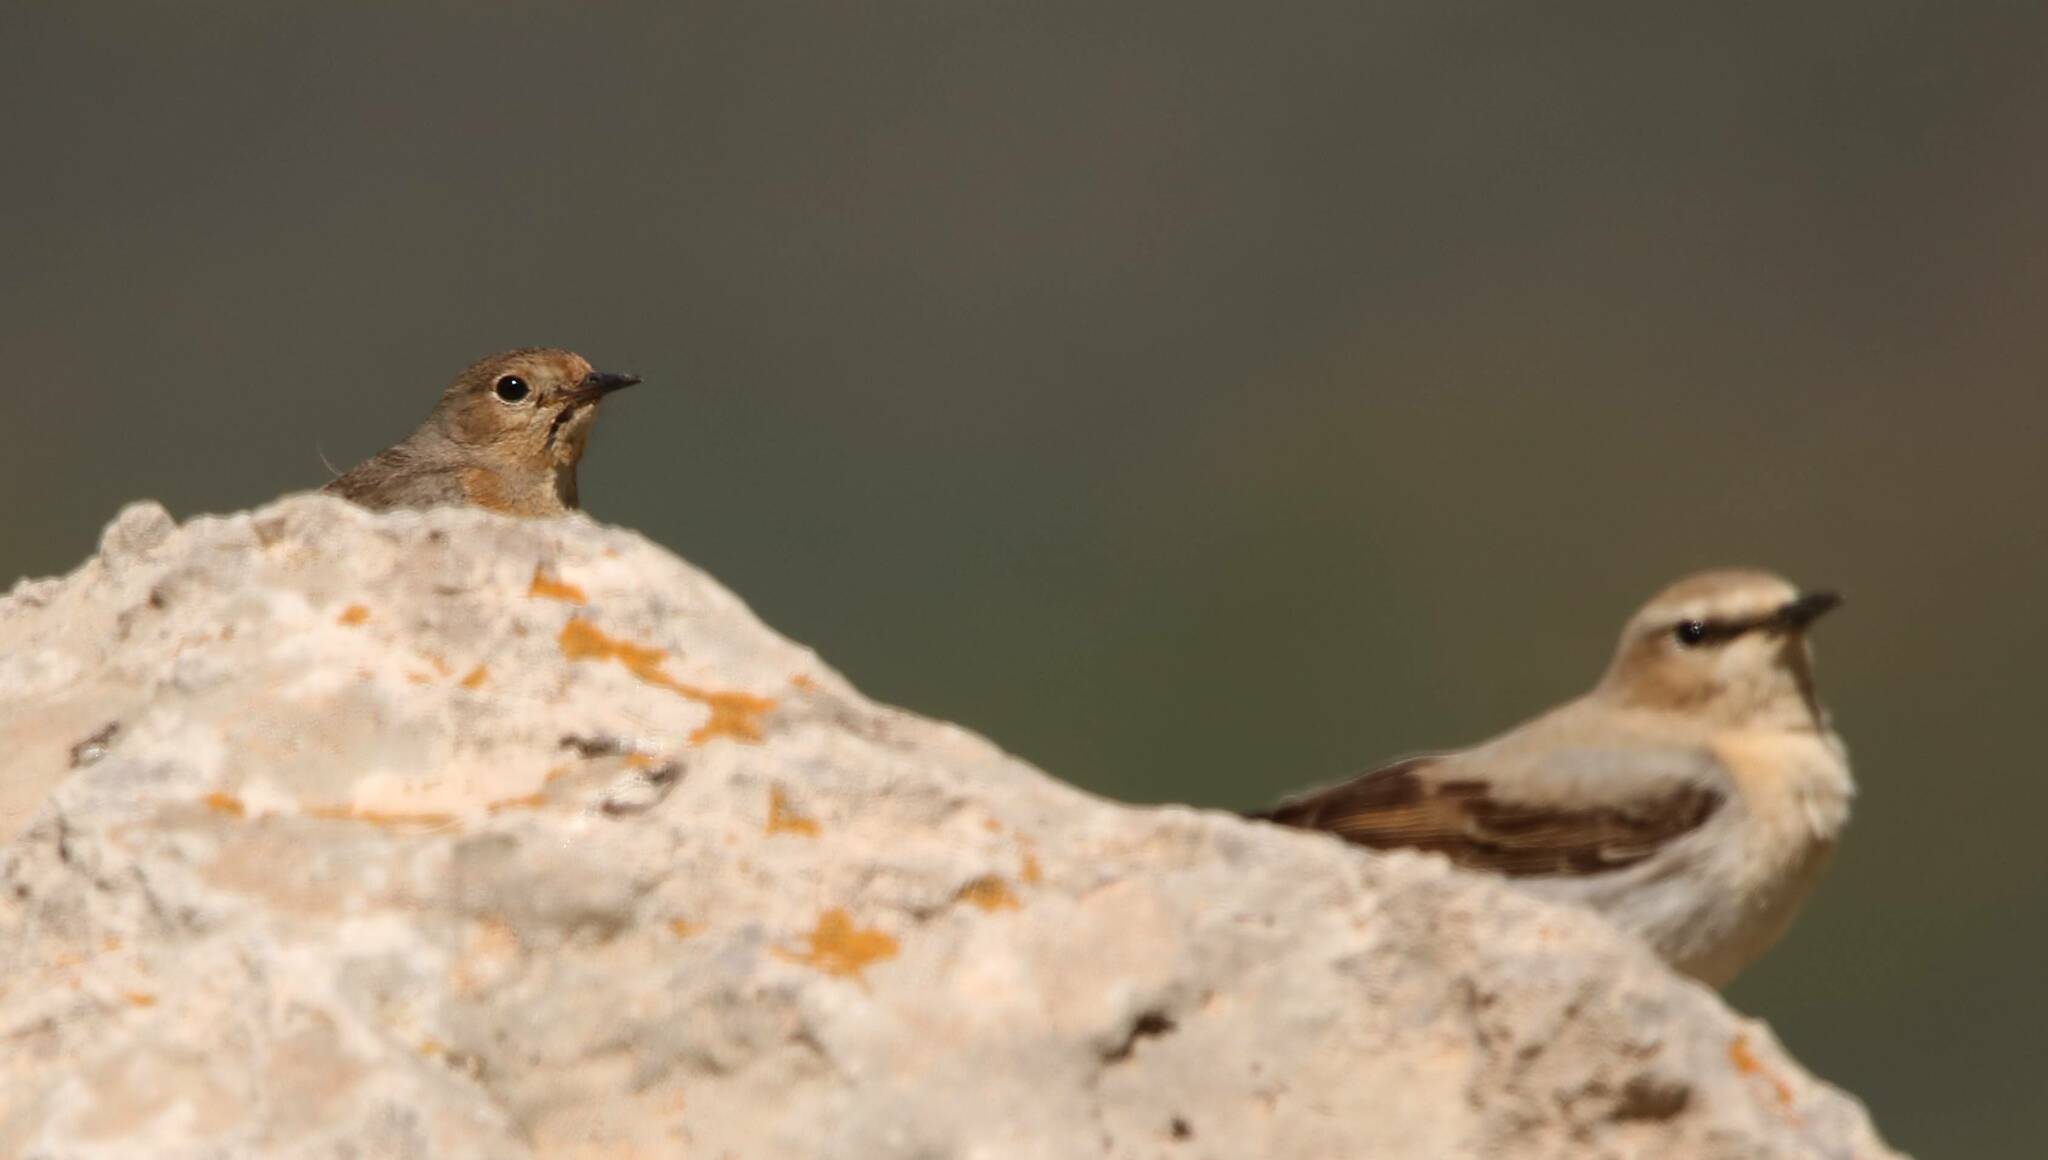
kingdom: Animalia
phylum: Chordata
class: Aves
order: Passeriformes
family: Muscicapidae
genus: Oenanthe
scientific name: Oenanthe oenanthe
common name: Northern wheatear
